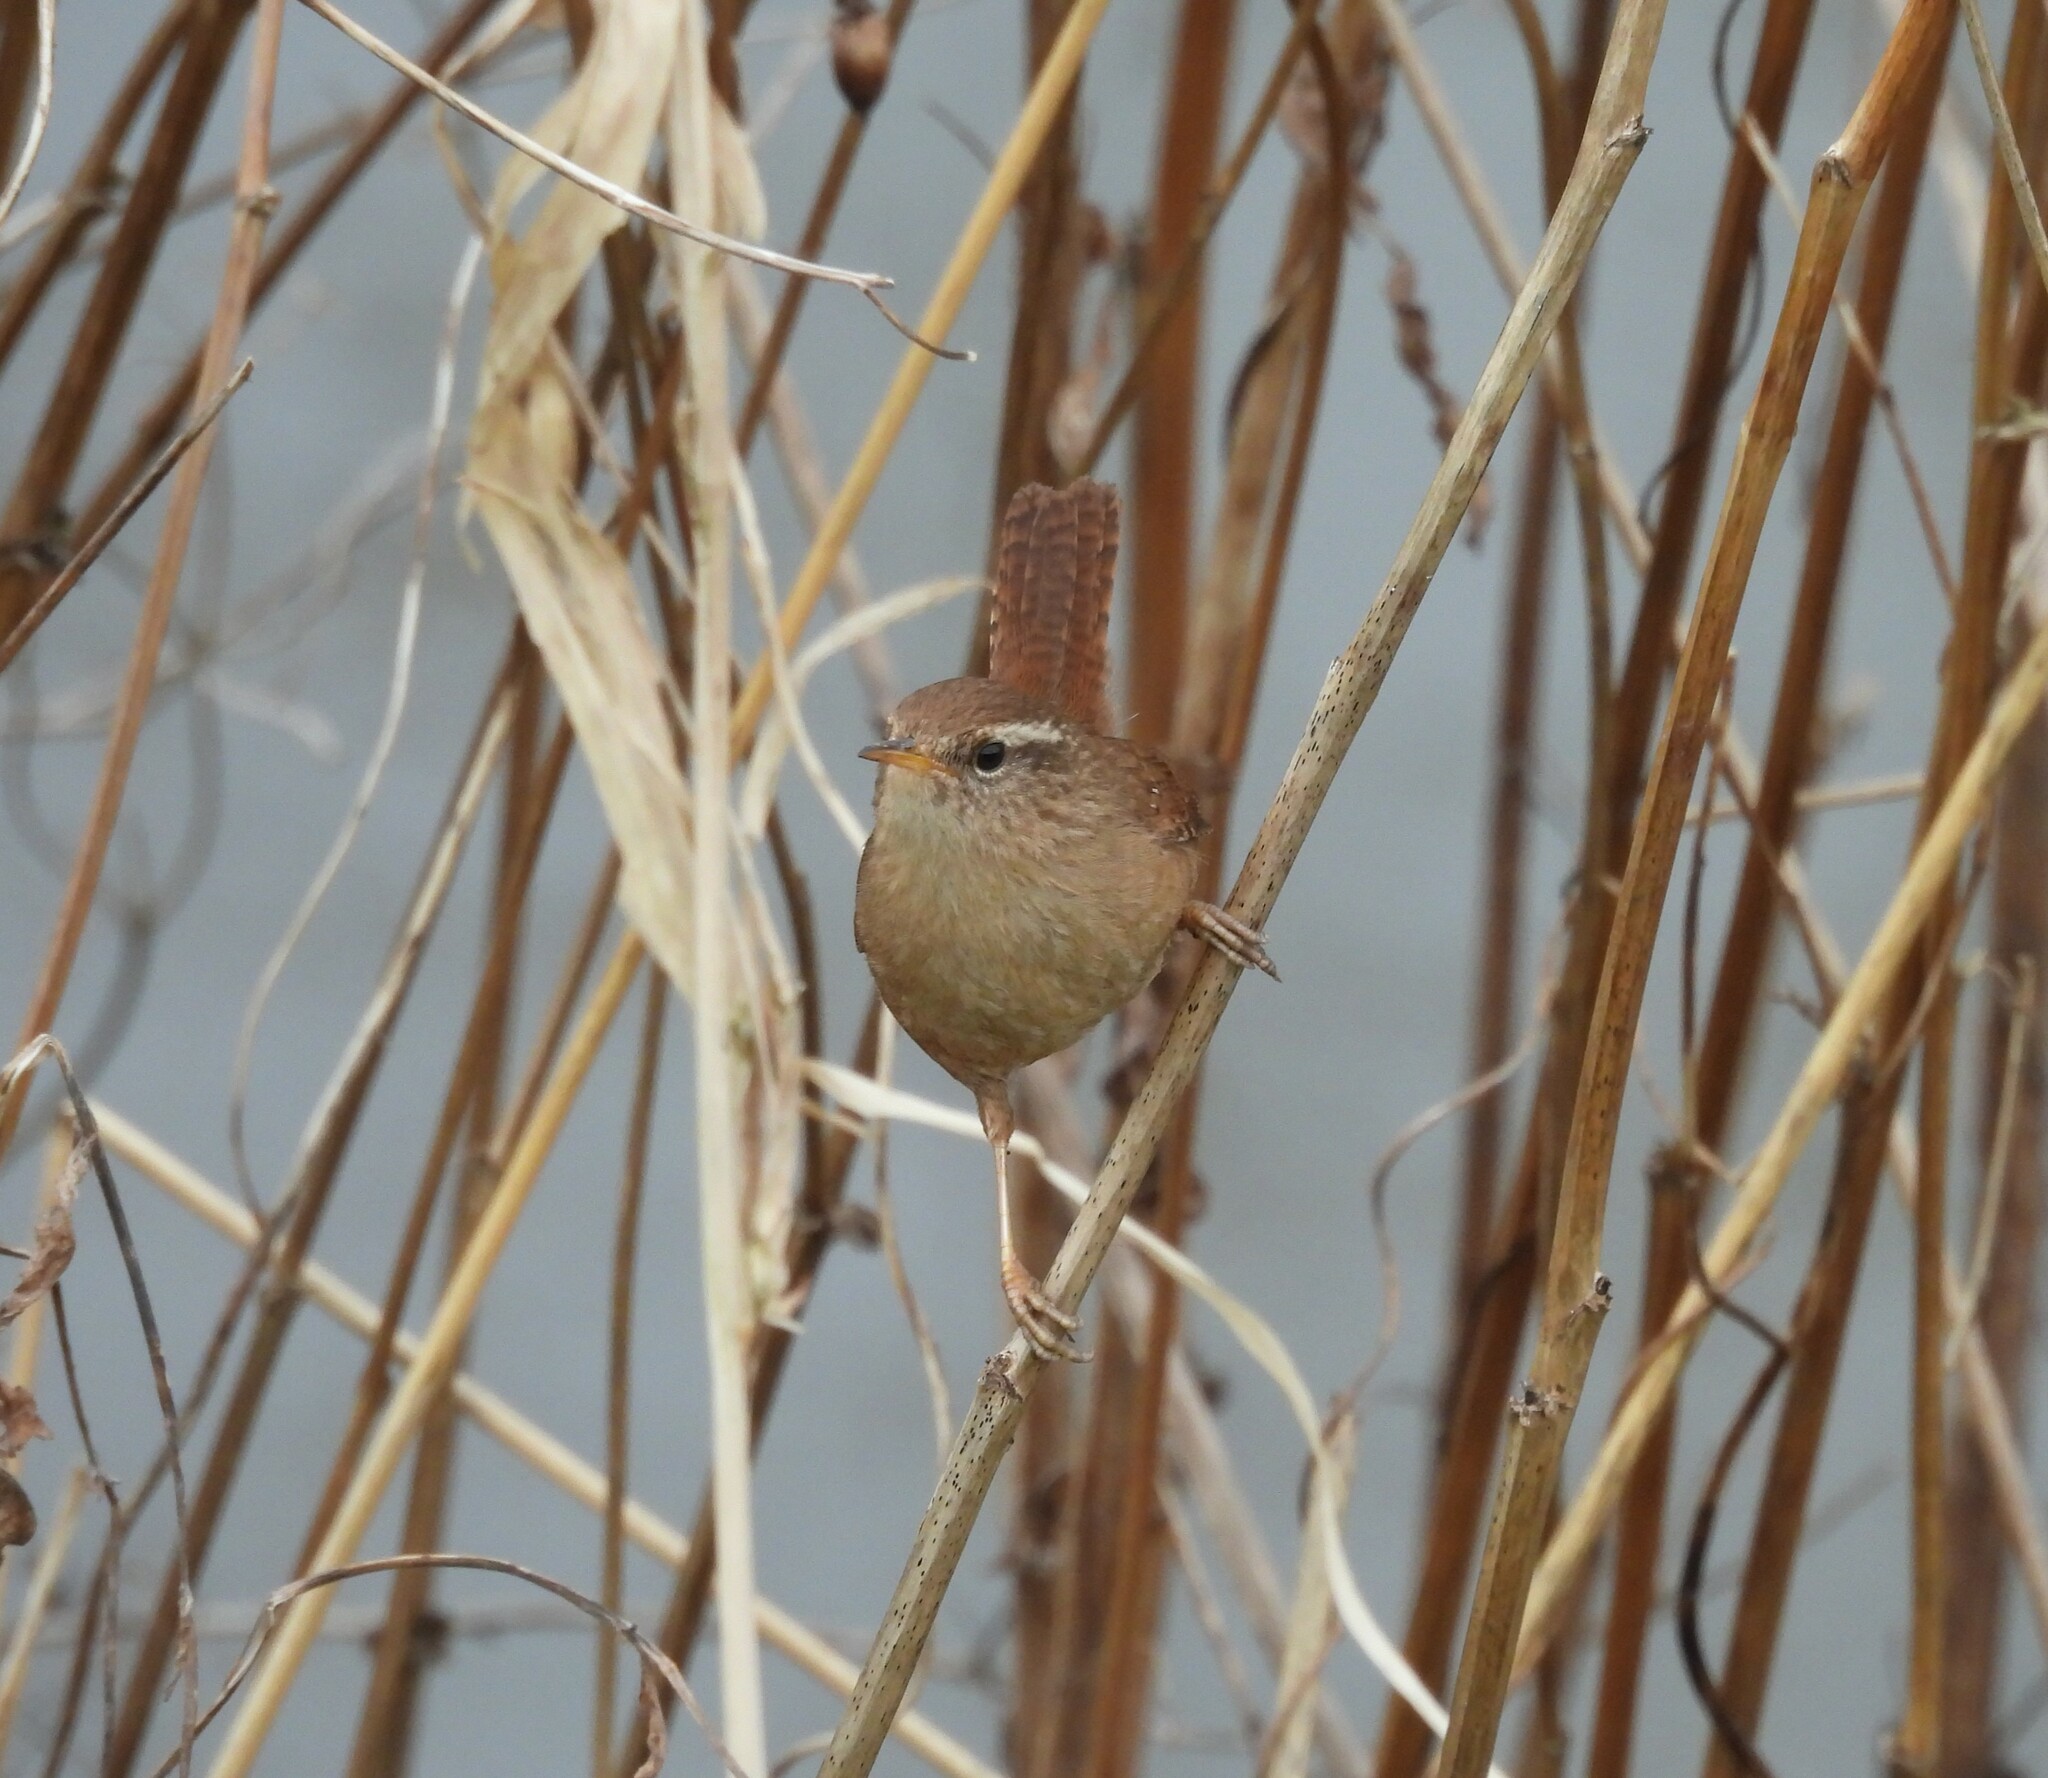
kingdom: Animalia
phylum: Chordata
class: Aves
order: Passeriformes
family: Troglodytidae
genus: Troglodytes
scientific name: Troglodytes troglodytes
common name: Eurasian wren
